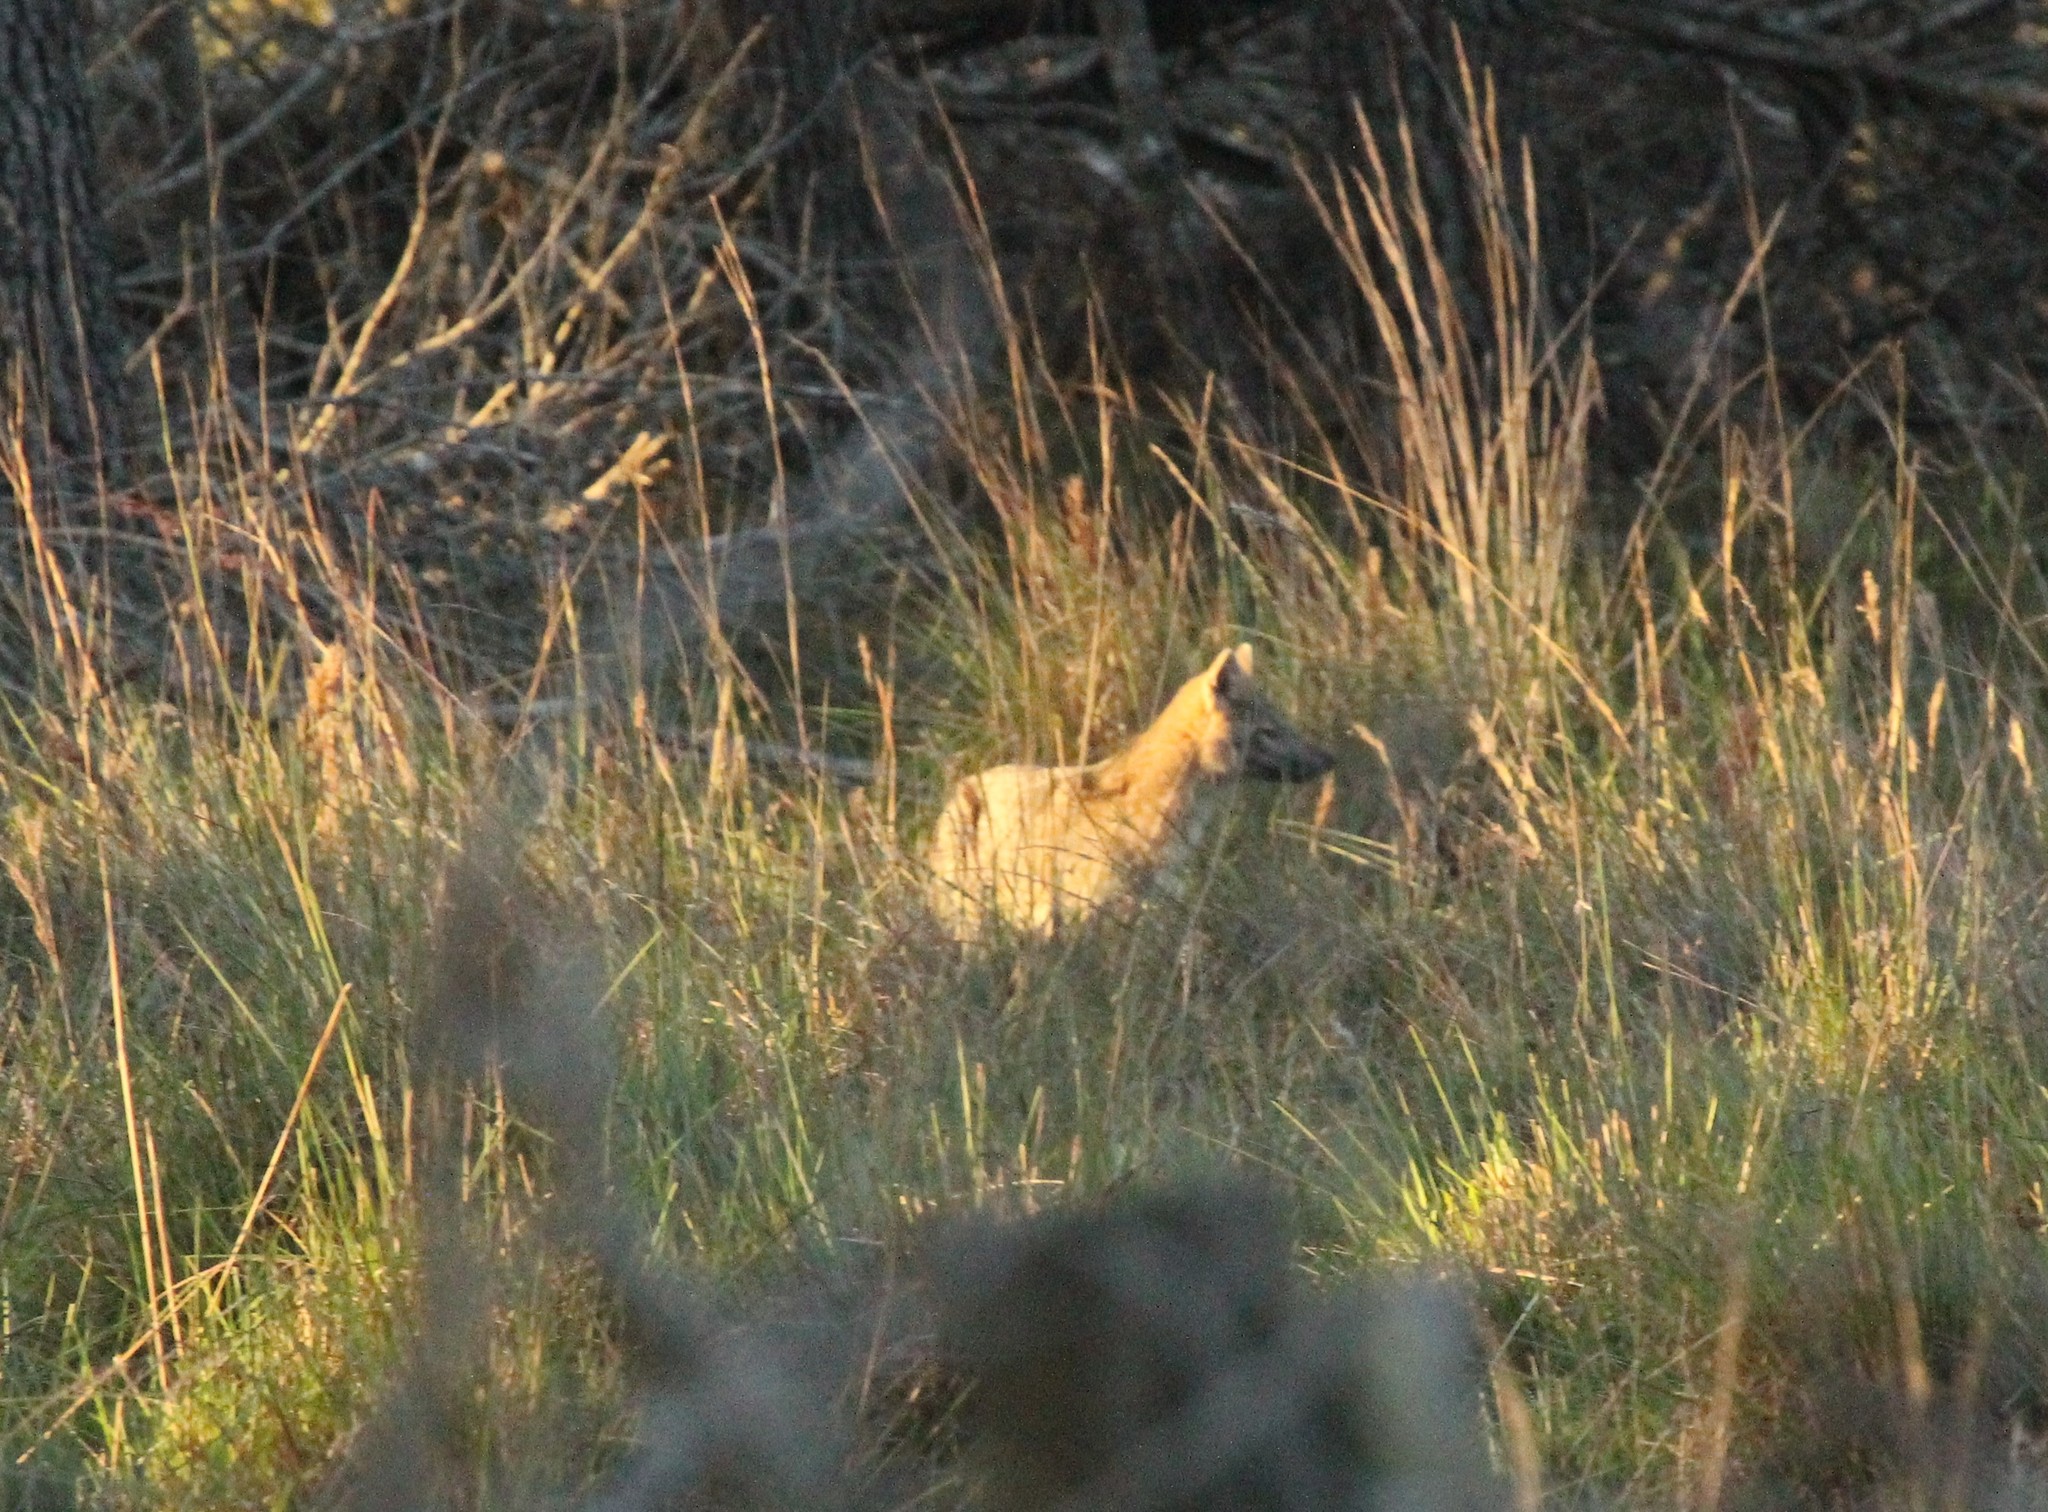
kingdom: Animalia
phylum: Chordata
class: Mammalia
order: Carnivora
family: Canidae
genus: Cerdocyon
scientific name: Cerdocyon thous
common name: Crab-eating fox
